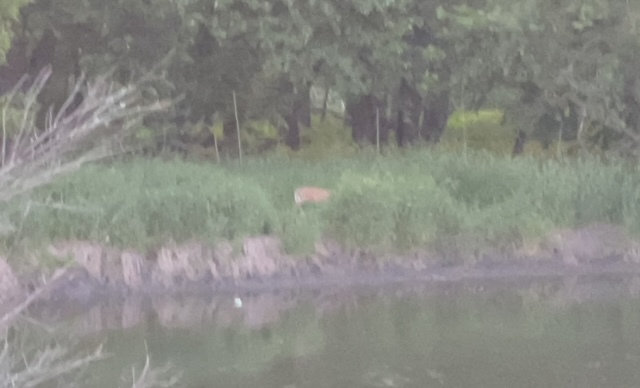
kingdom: Animalia
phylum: Chordata
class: Mammalia
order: Artiodactyla
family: Cervidae
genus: Odocoileus
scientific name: Odocoileus virginianus
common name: White-tailed deer
